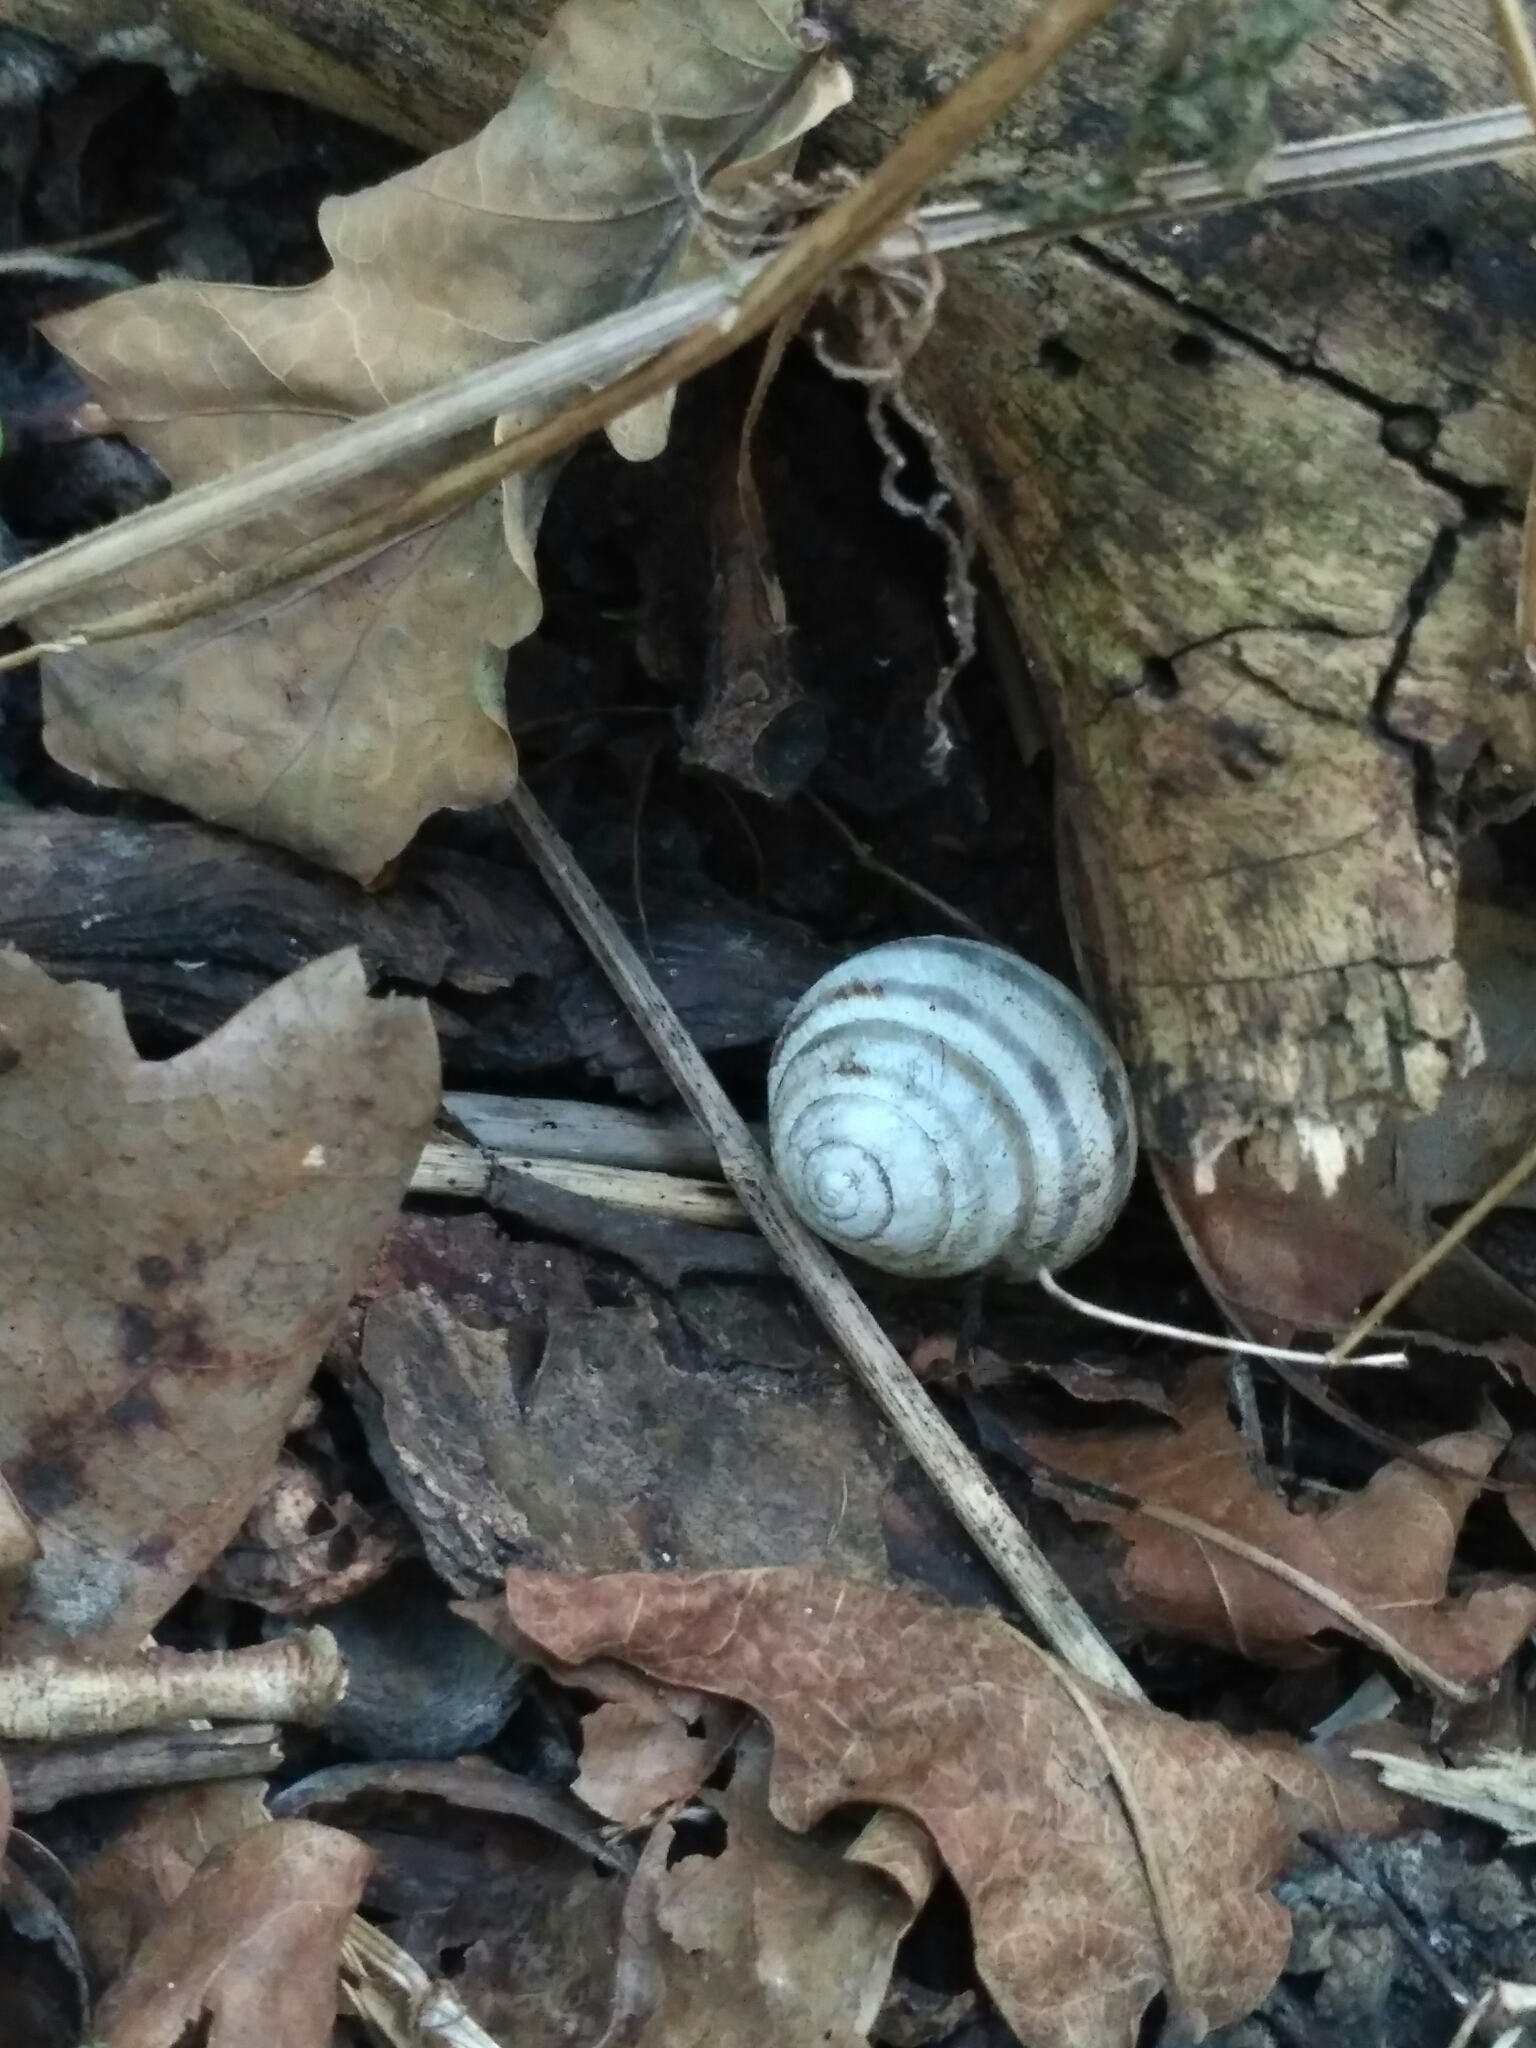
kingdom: Animalia
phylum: Mollusca
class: Gastropoda
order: Stylommatophora
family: Helicidae
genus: Caucasotachea
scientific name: Caucasotachea vindobonensis
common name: European helicid land snail
